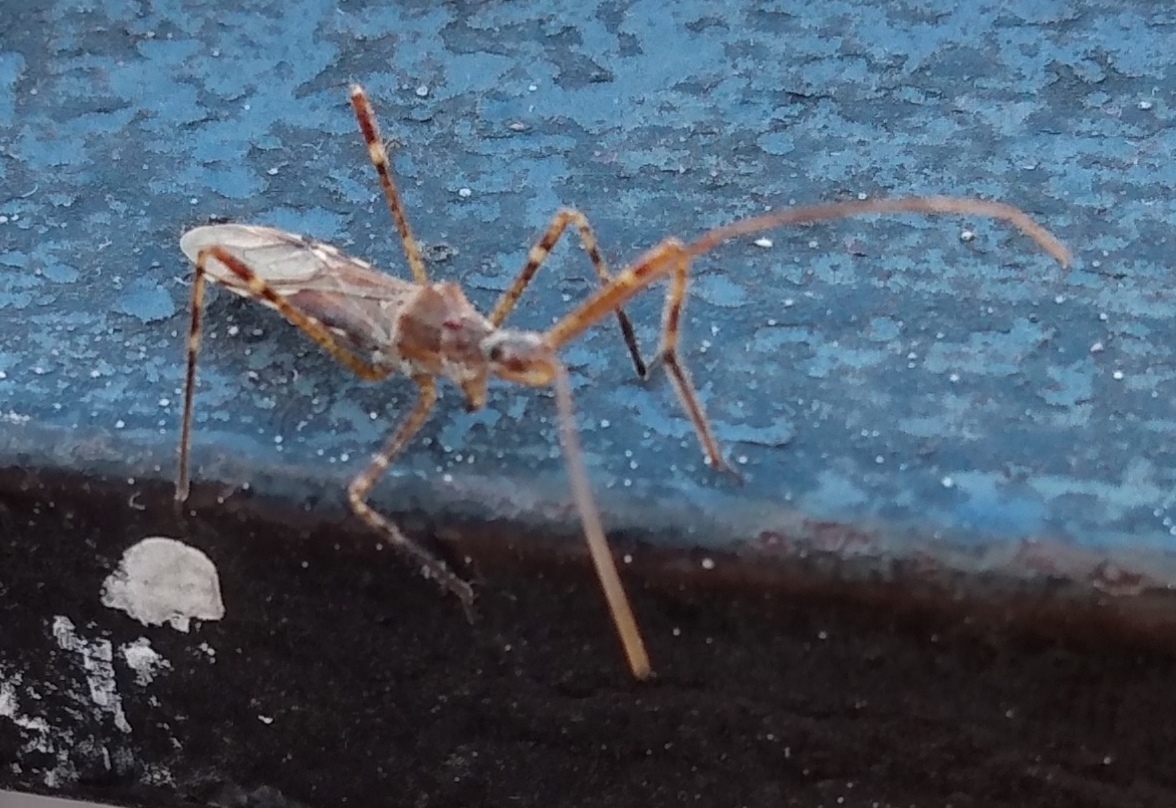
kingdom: Animalia
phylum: Arthropoda
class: Insecta
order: Hemiptera
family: Reduviidae
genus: Zelus
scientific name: Zelus tetracanthus
